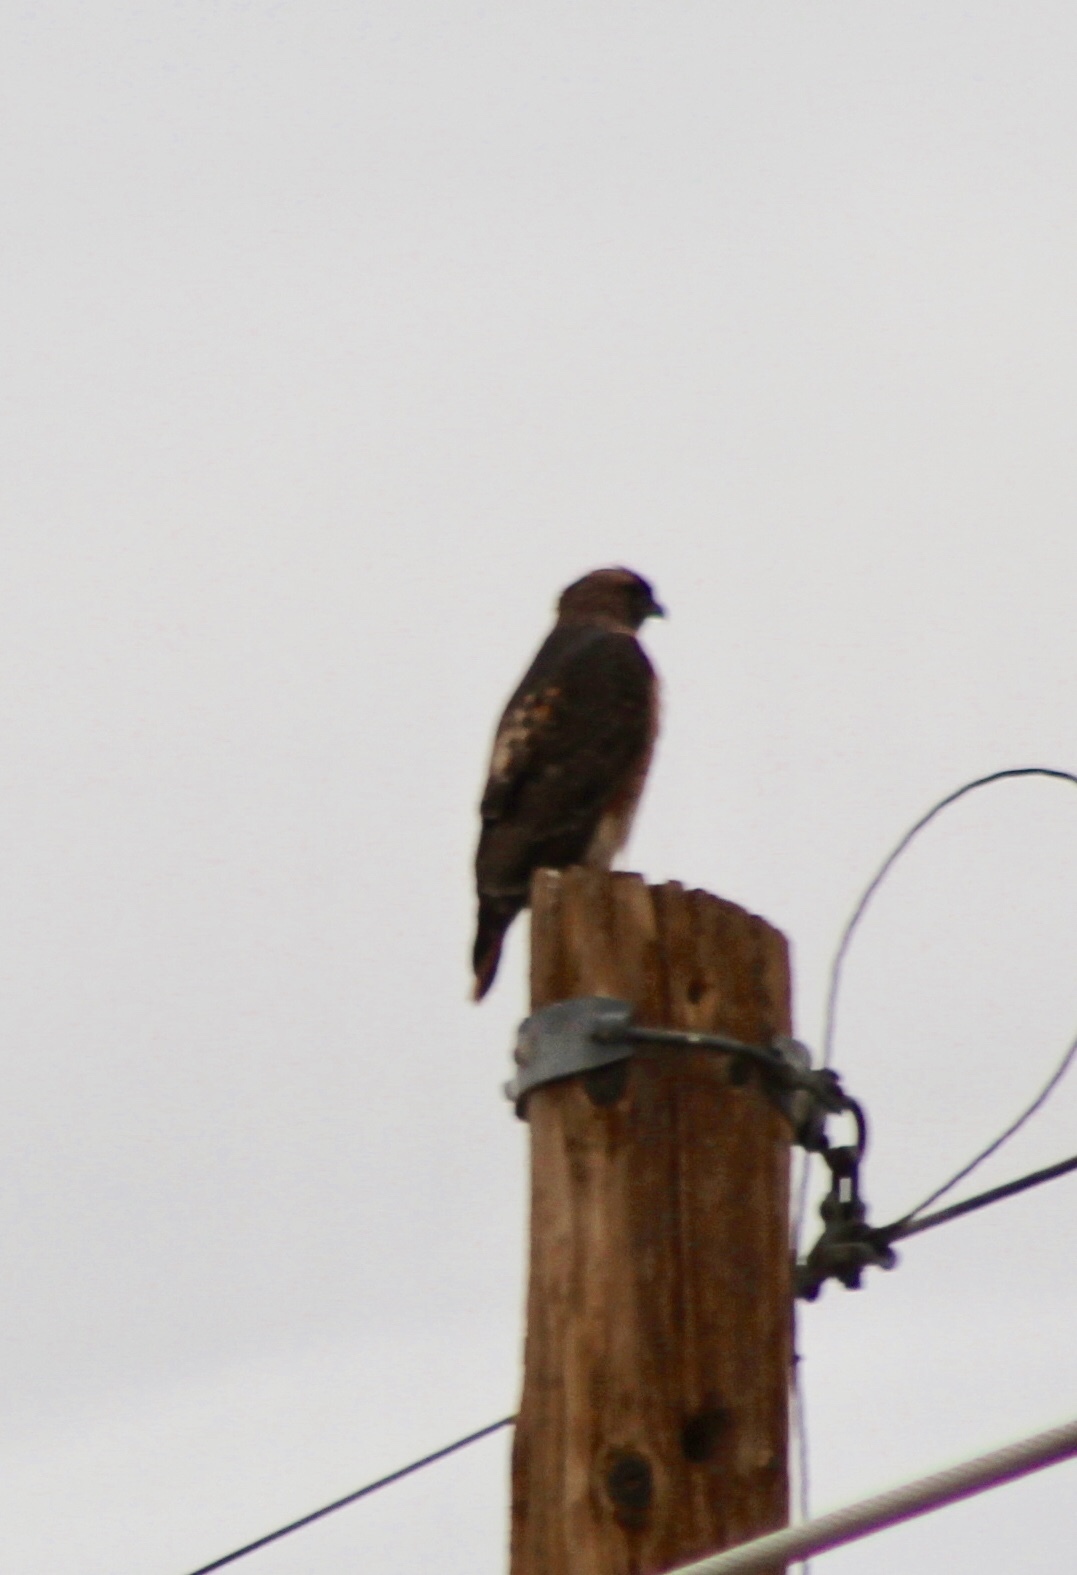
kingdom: Animalia
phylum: Chordata
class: Aves
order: Accipitriformes
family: Accipitridae
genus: Buteo
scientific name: Buteo jamaicensis
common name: Red-tailed hawk
